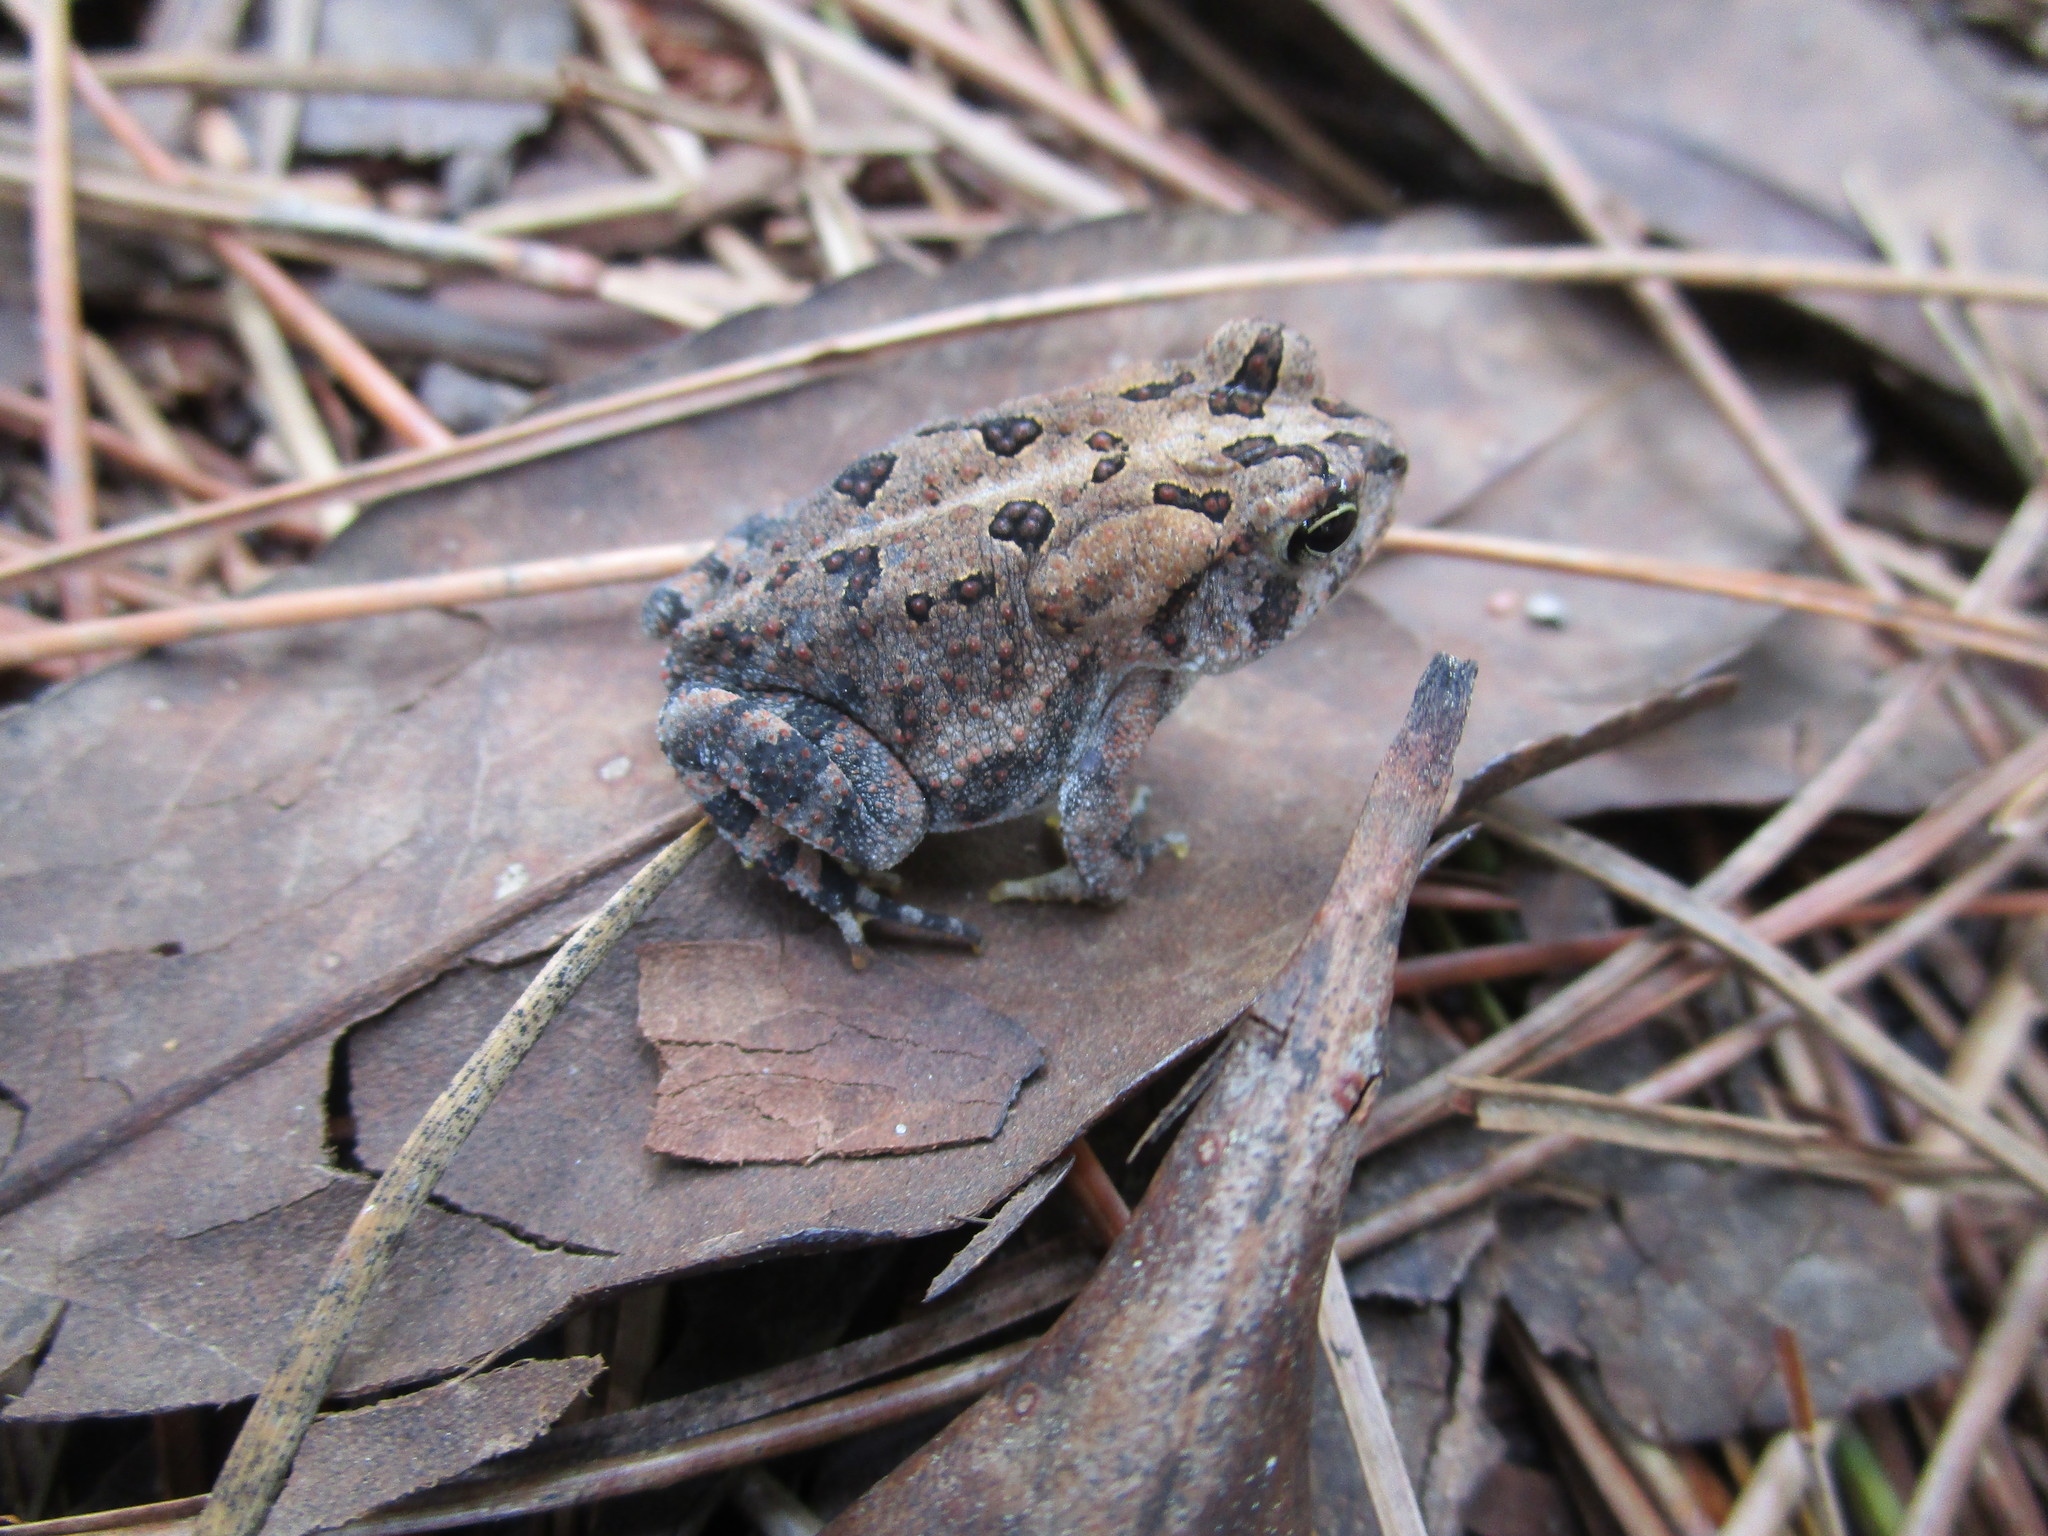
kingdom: Animalia
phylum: Chordata
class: Amphibia
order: Anura
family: Bufonidae
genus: Anaxyrus
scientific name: Anaxyrus terrestris
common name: Southern toad
